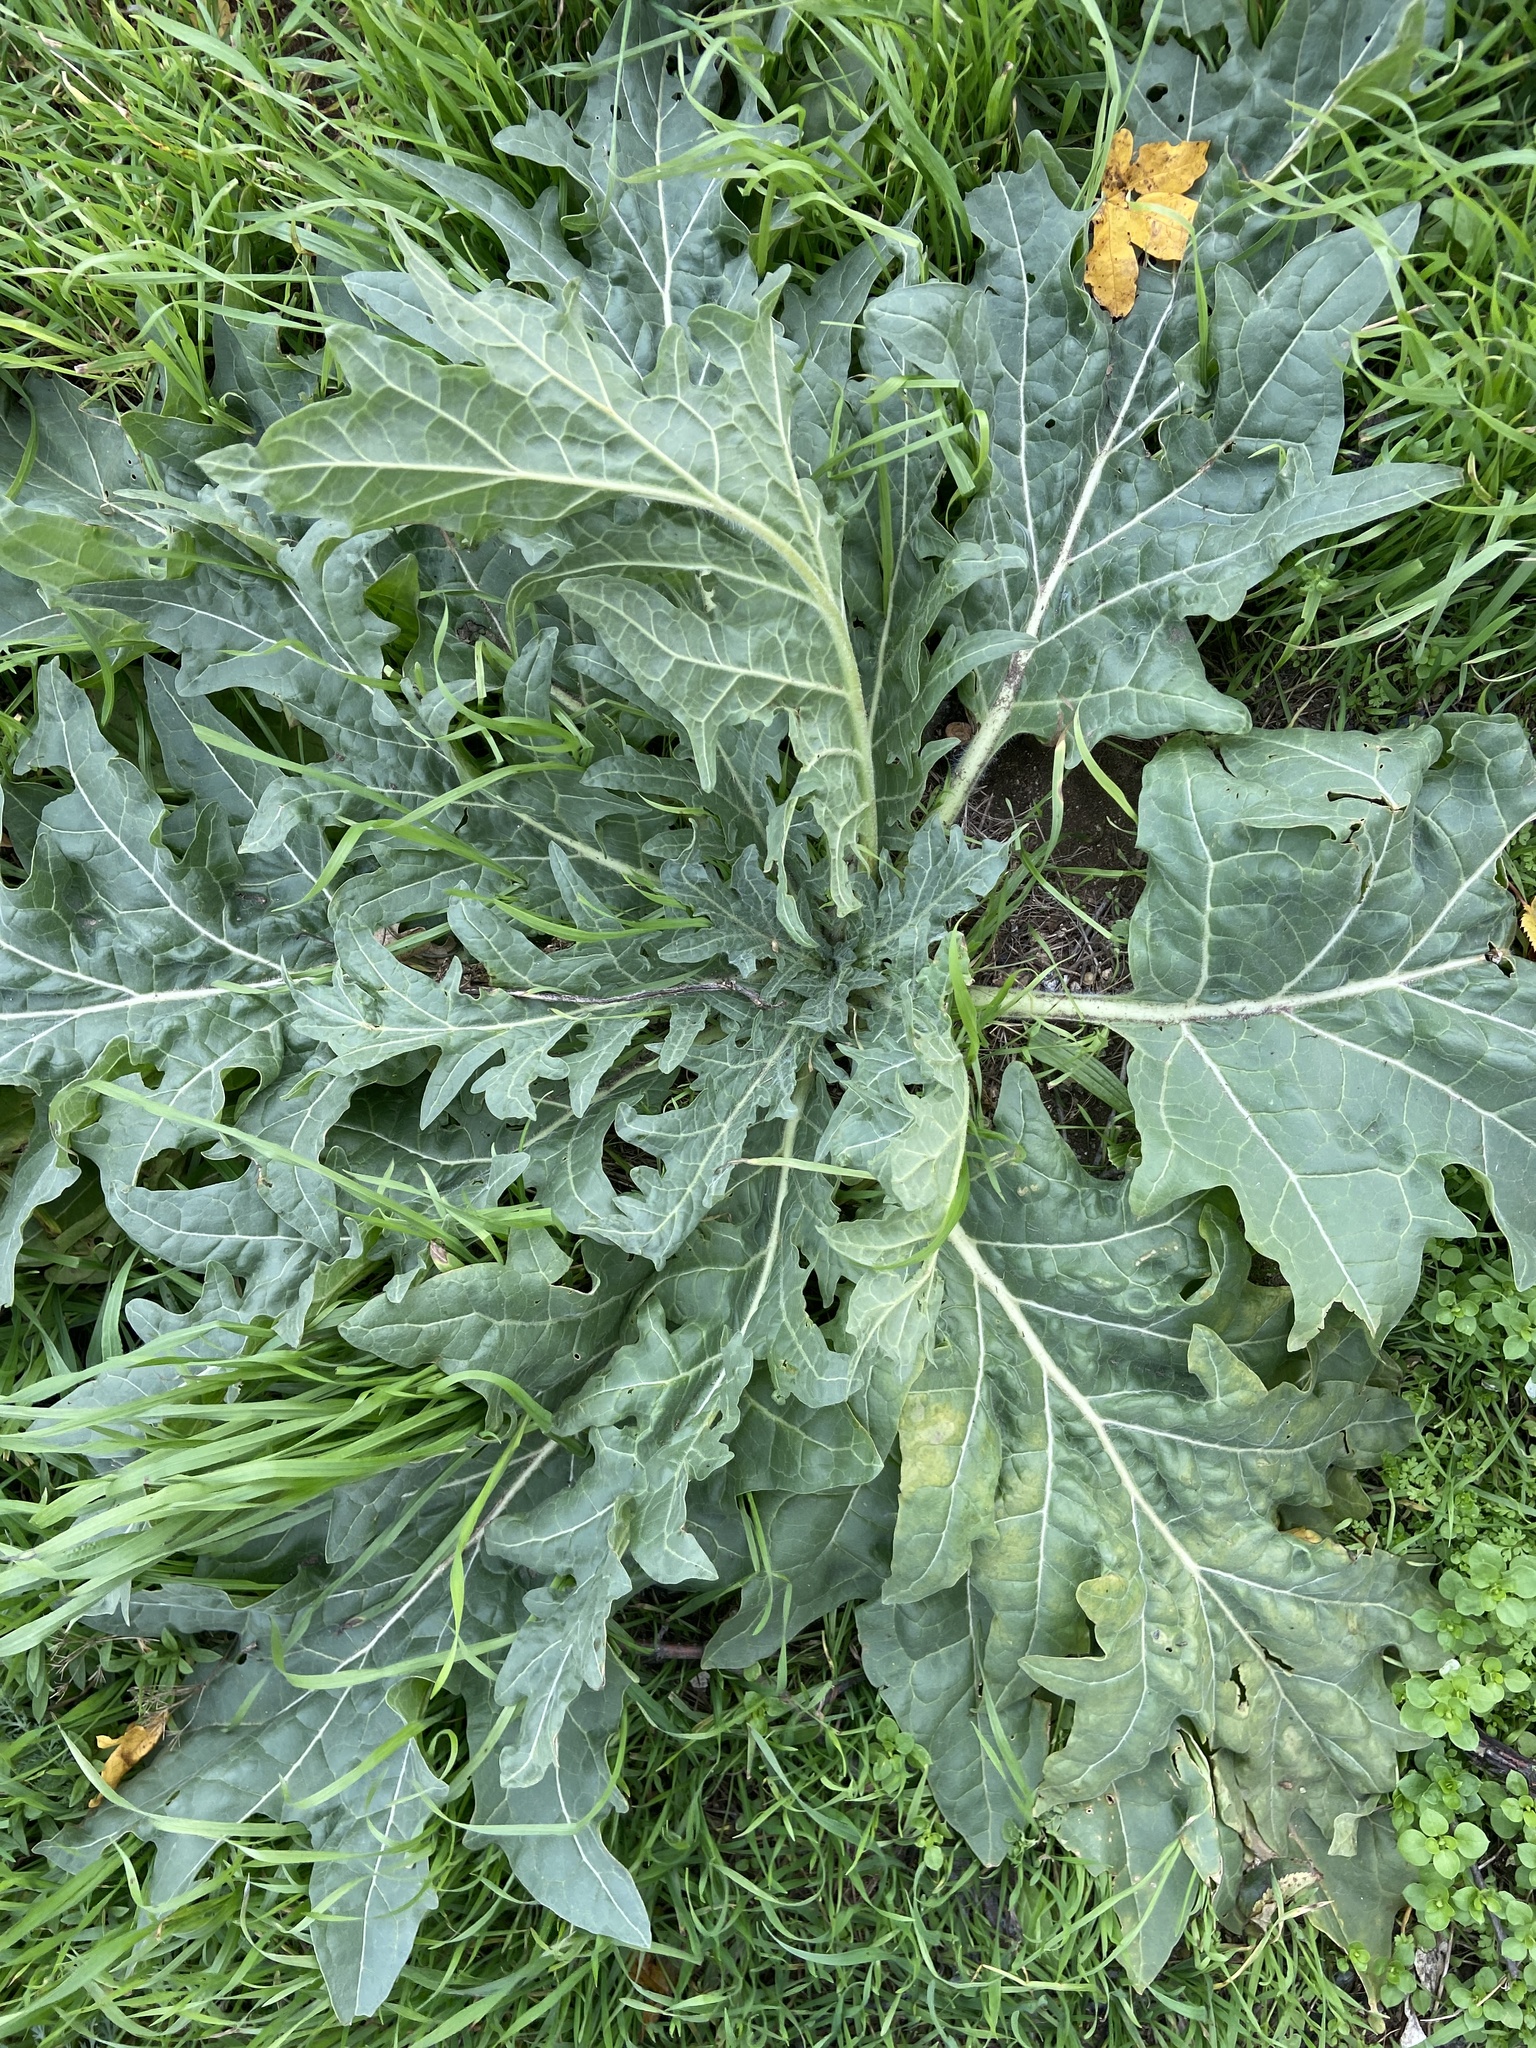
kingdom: Plantae
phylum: Tracheophyta
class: Magnoliopsida
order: Solanales
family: Solanaceae
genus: Hyoscyamus
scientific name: Hyoscyamus niger
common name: Henbane
